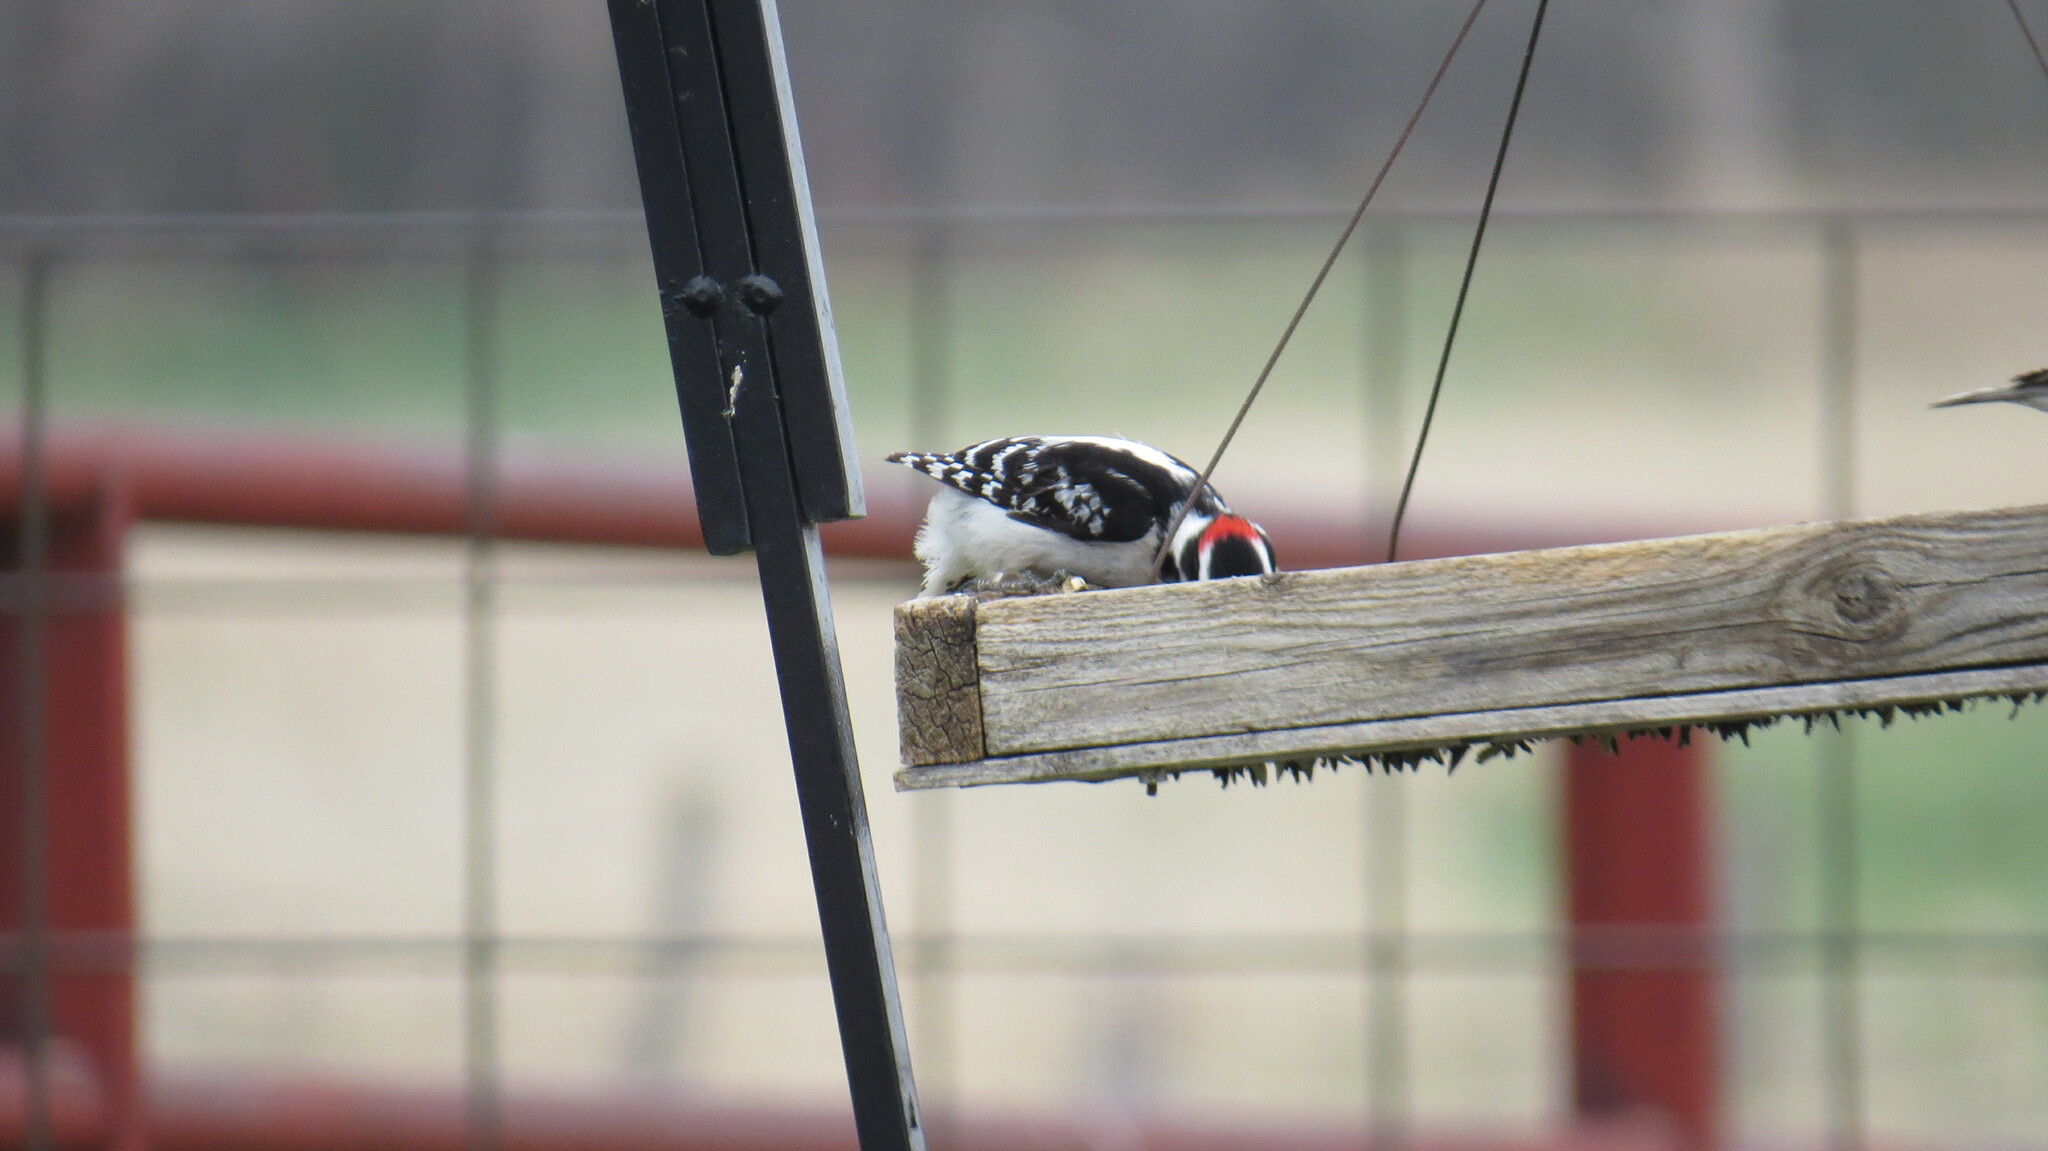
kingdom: Animalia
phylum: Chordata
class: Aves
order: Piciformes
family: Picidae
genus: Dryobates
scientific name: Dryobates pubescens
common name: Downy woodpecker
